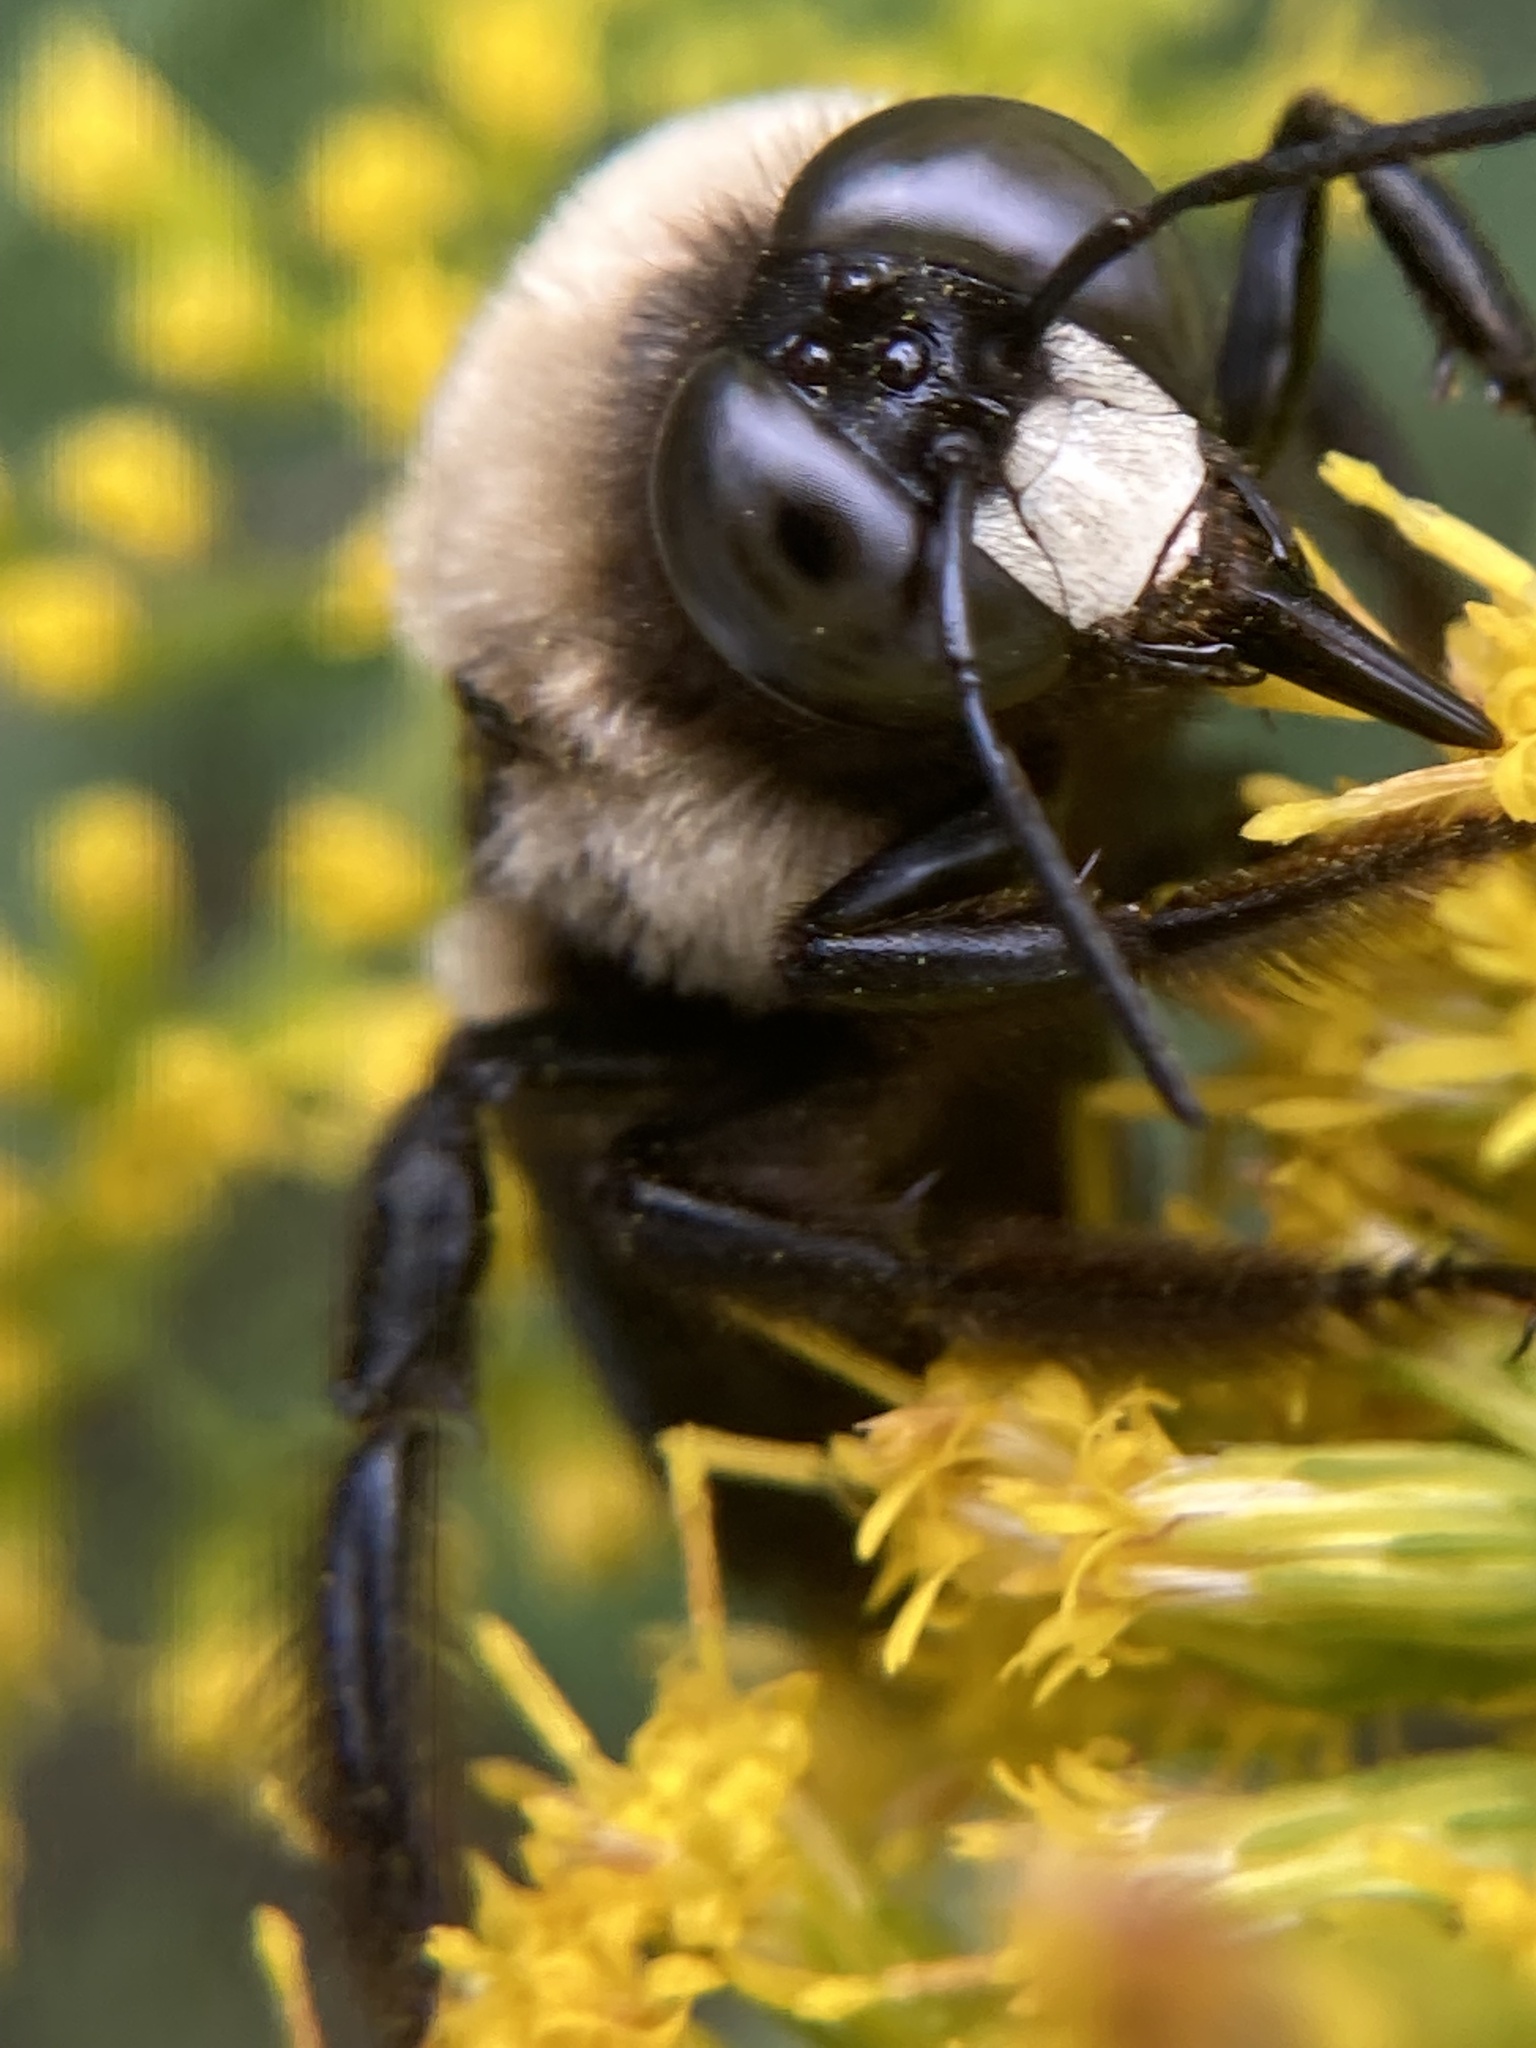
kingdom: Animalia
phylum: Arthropoda
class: Insecta
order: Hymenoptera
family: Apidae
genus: Xylocopa
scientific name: Xylocopa virginica
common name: Carpenter bee
